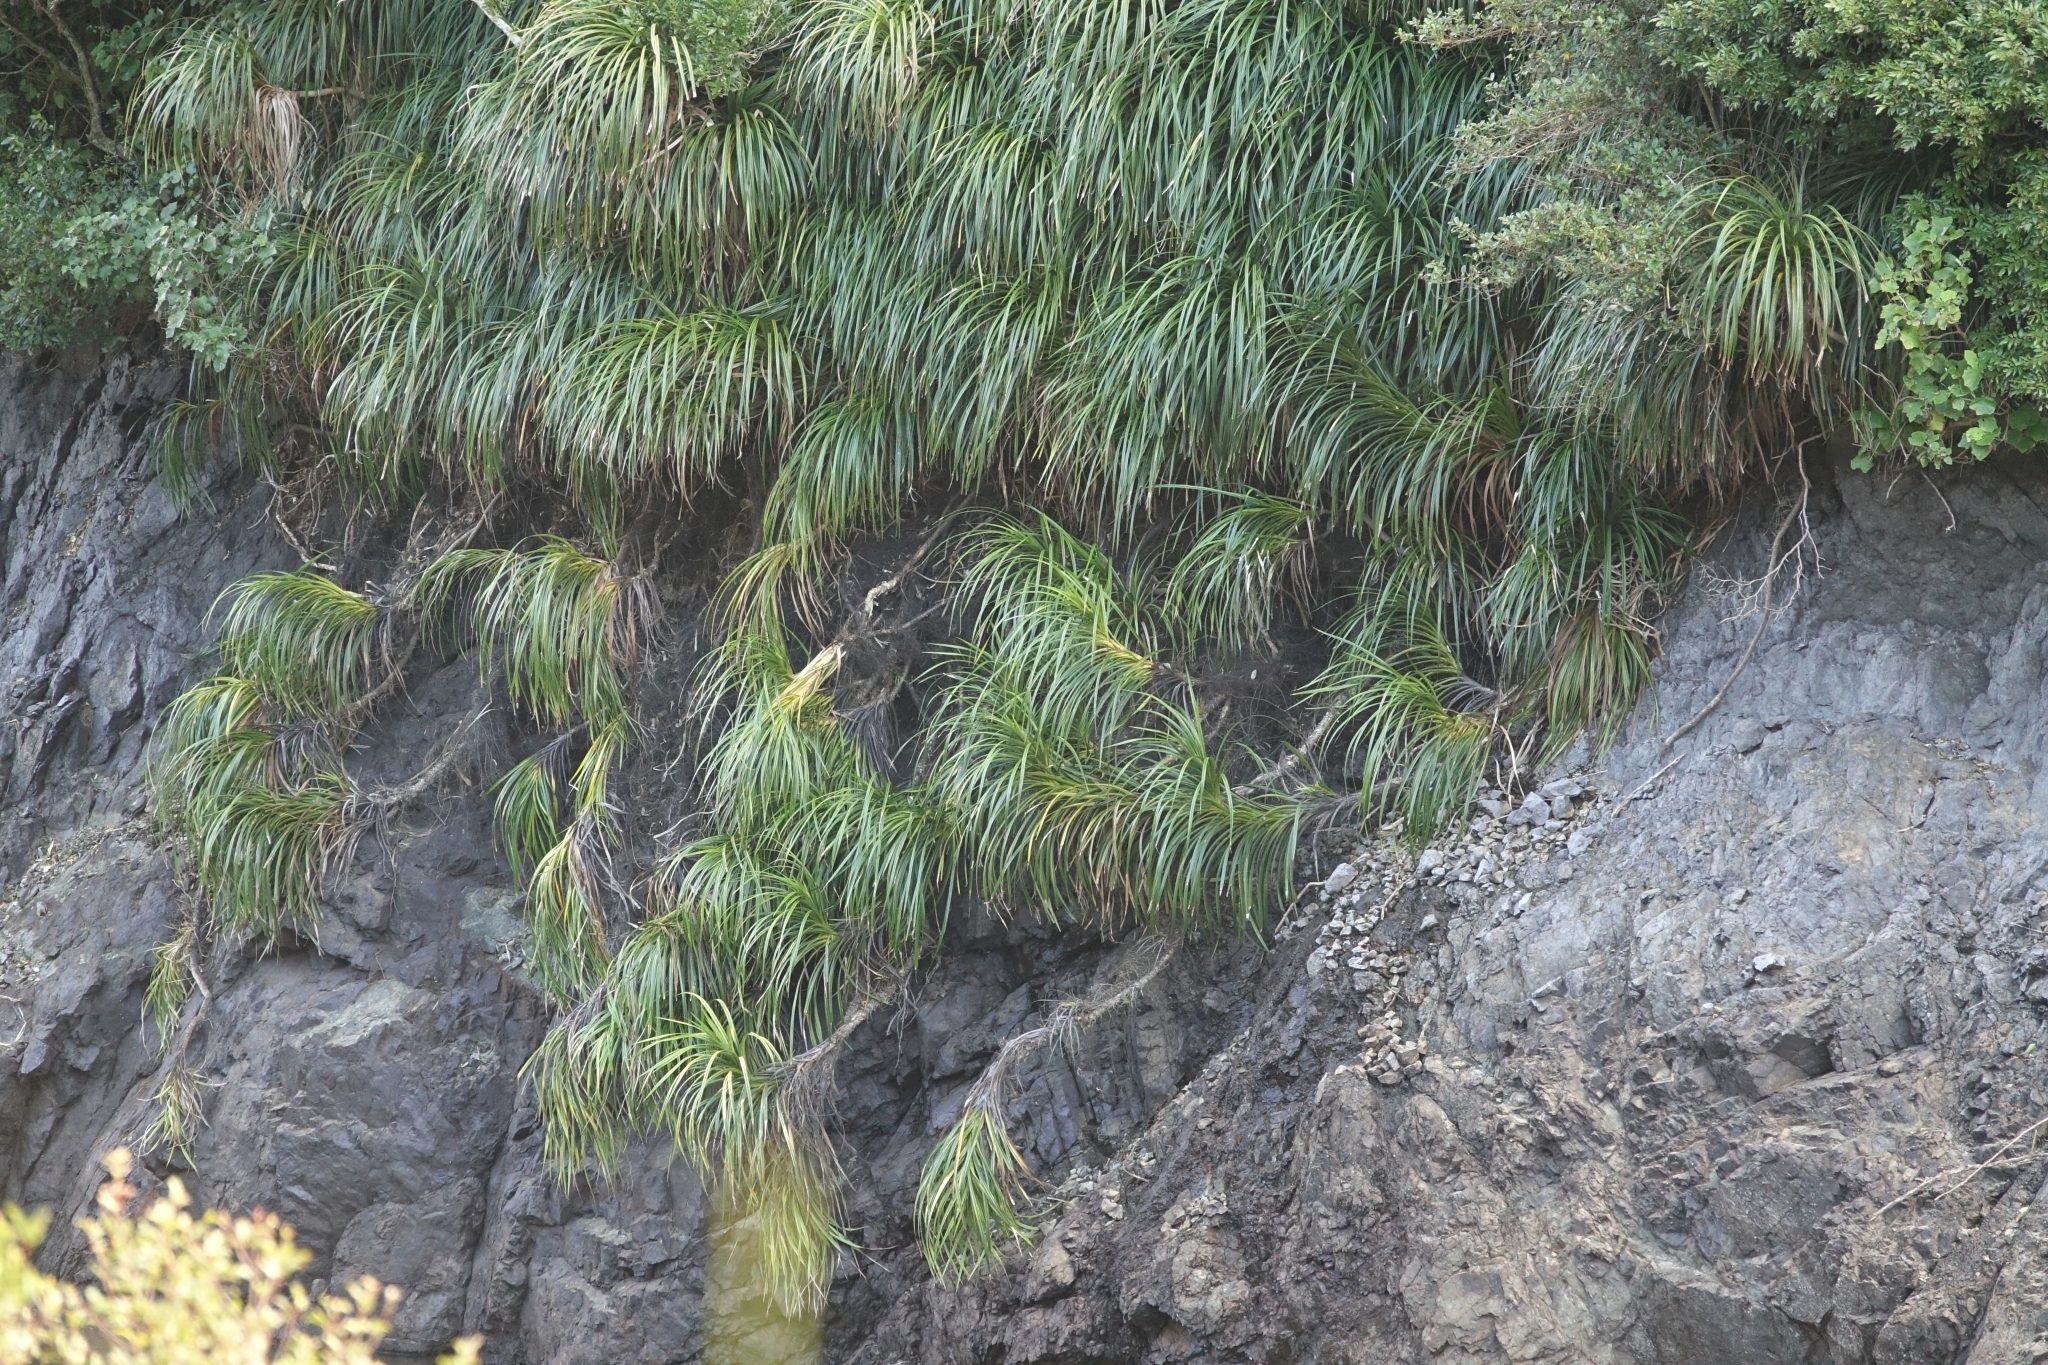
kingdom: Plantae
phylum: Tracheophyta
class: Liliopsida
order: Pandanales
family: Pandanaceae
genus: Freycinetia
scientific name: Freycinetia banksii
